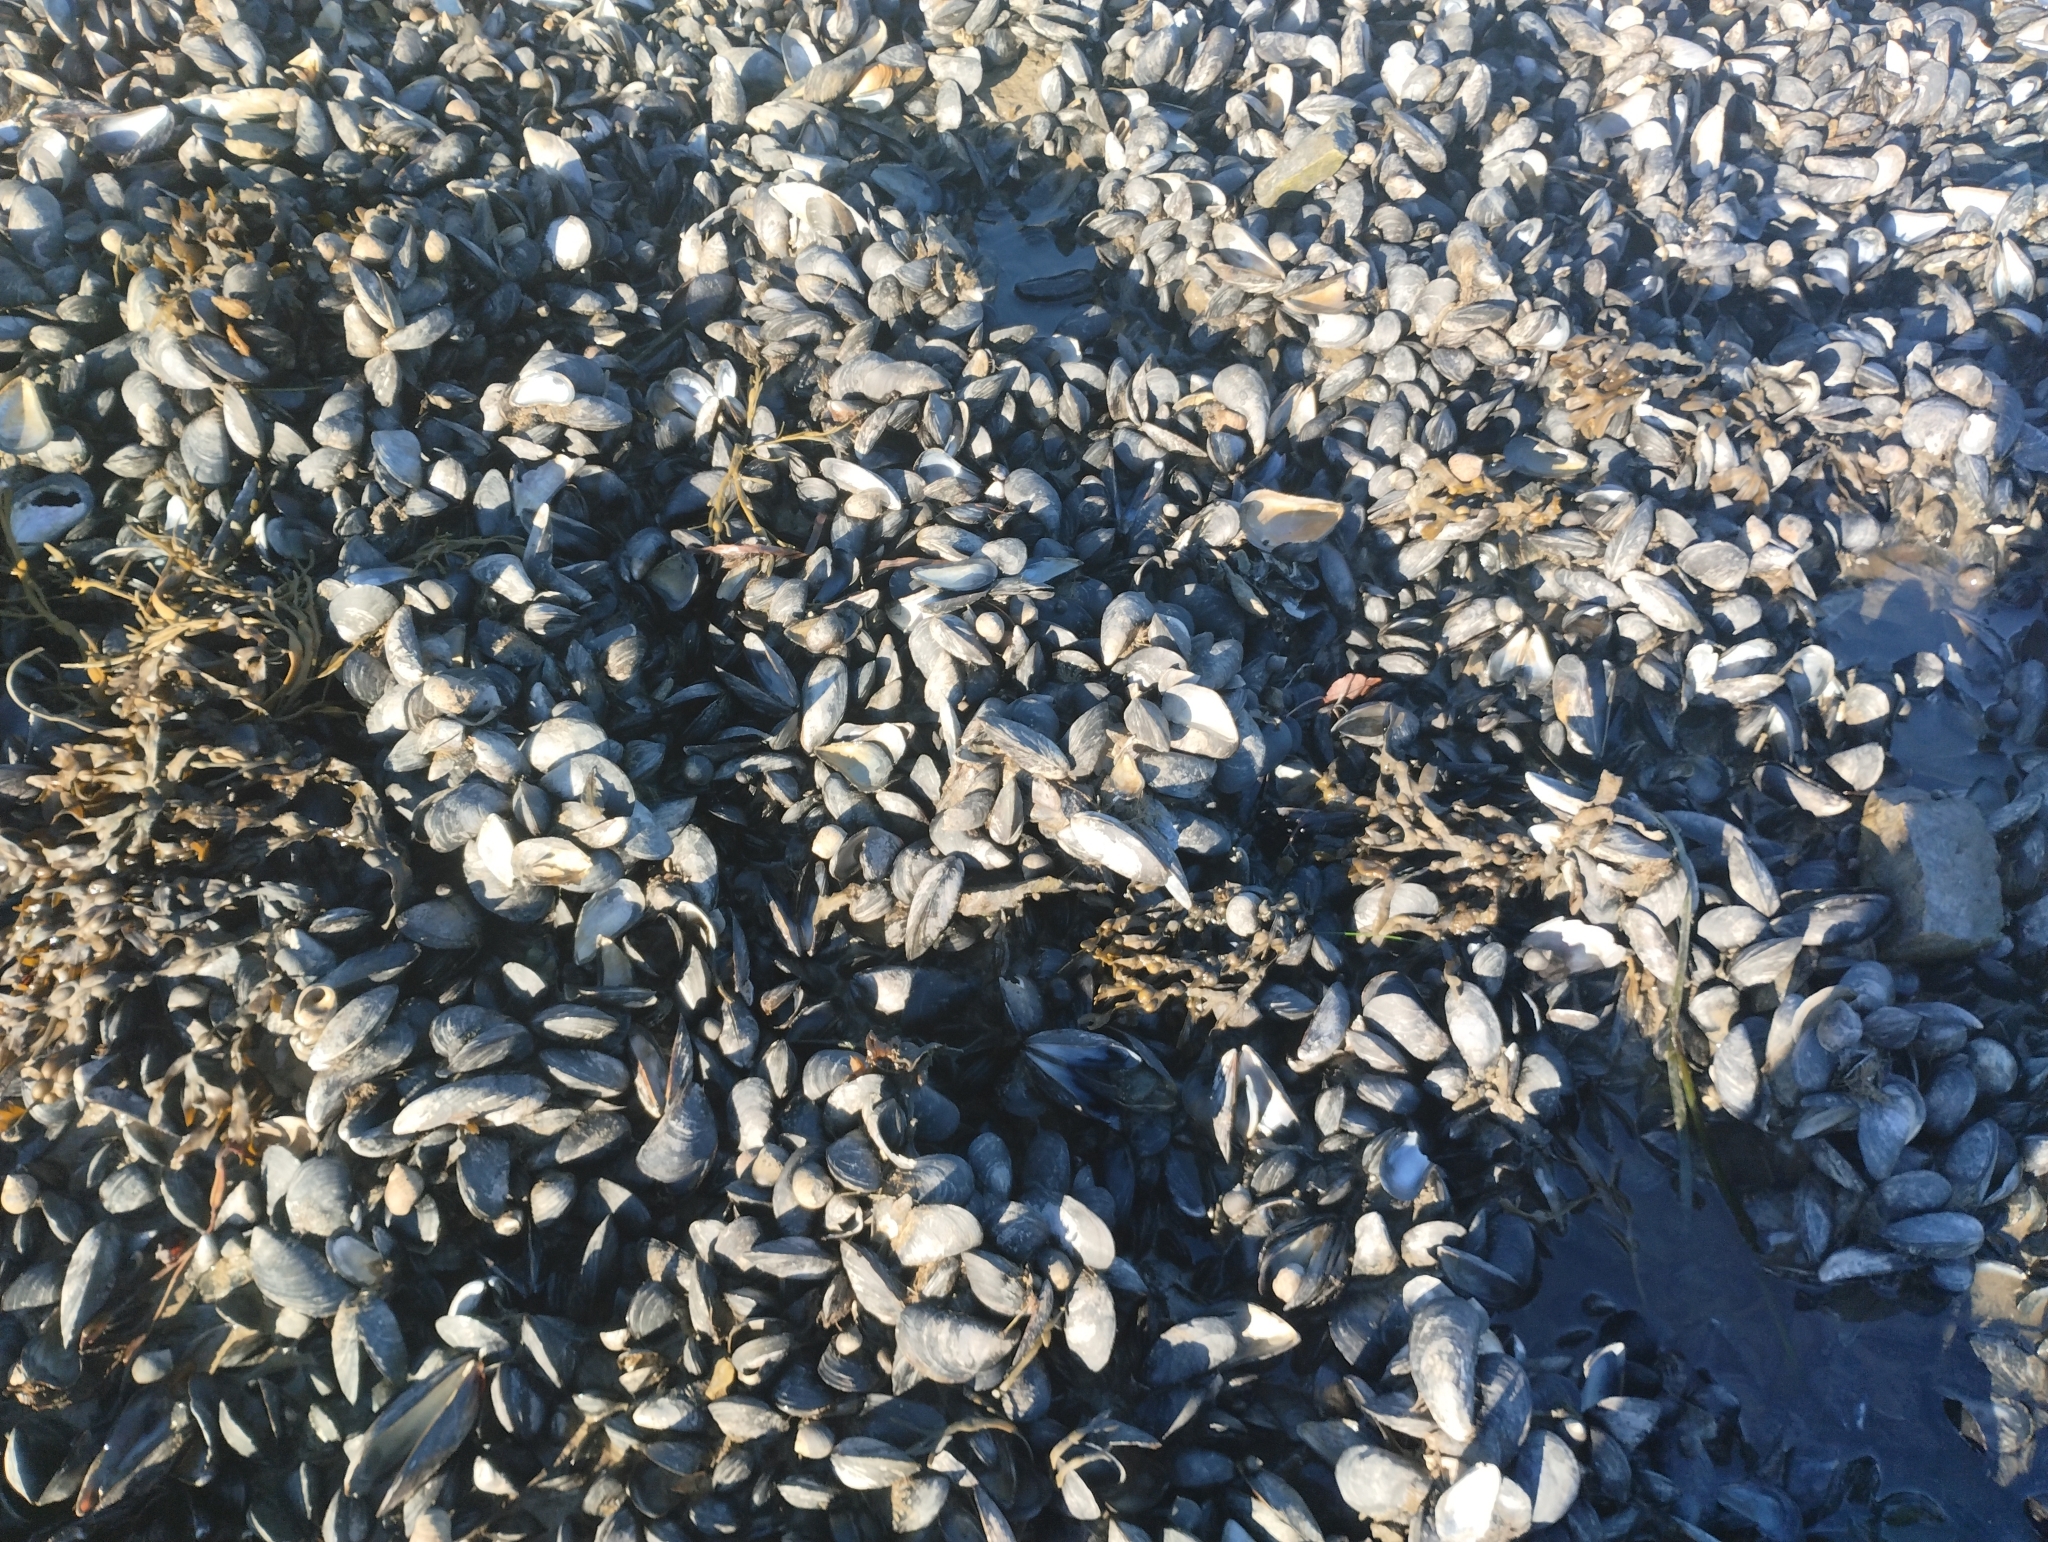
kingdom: Animalia
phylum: Mollusca
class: Bivalvia
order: Mytilida
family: Mytilidae
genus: Mytilus
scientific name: Mytilus
